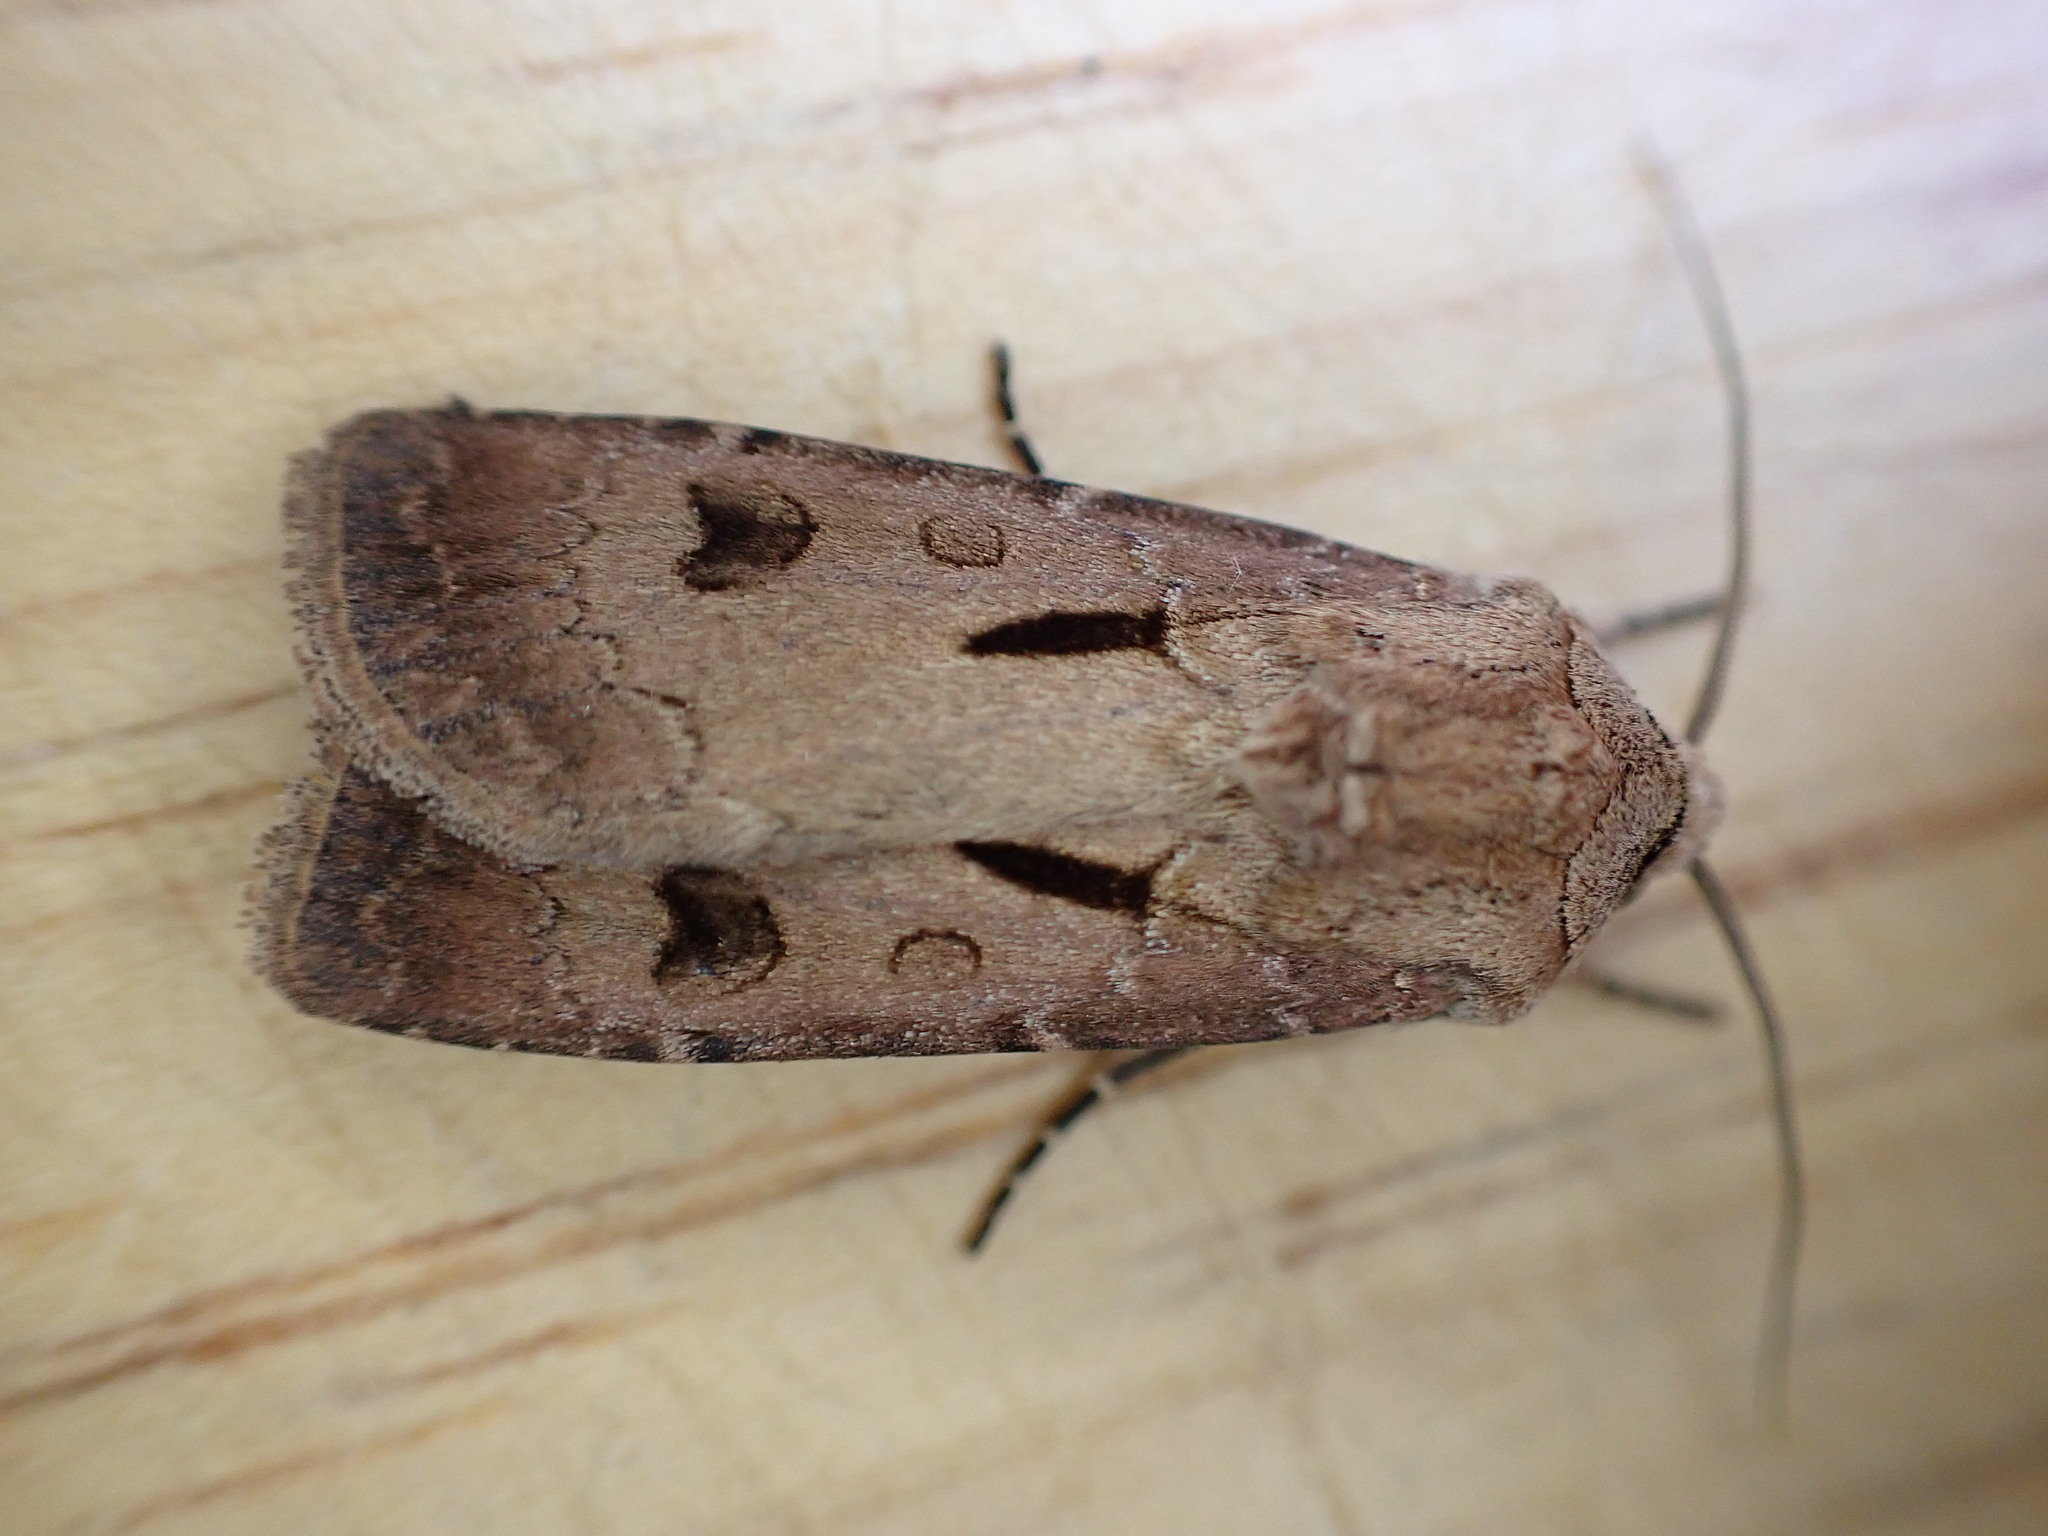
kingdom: Animalia
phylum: Arthropoda
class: Insecta
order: Lepidoptera
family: Noctuidae
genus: Agrotis
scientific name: Agrotis exclamationis
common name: Heart and dart
